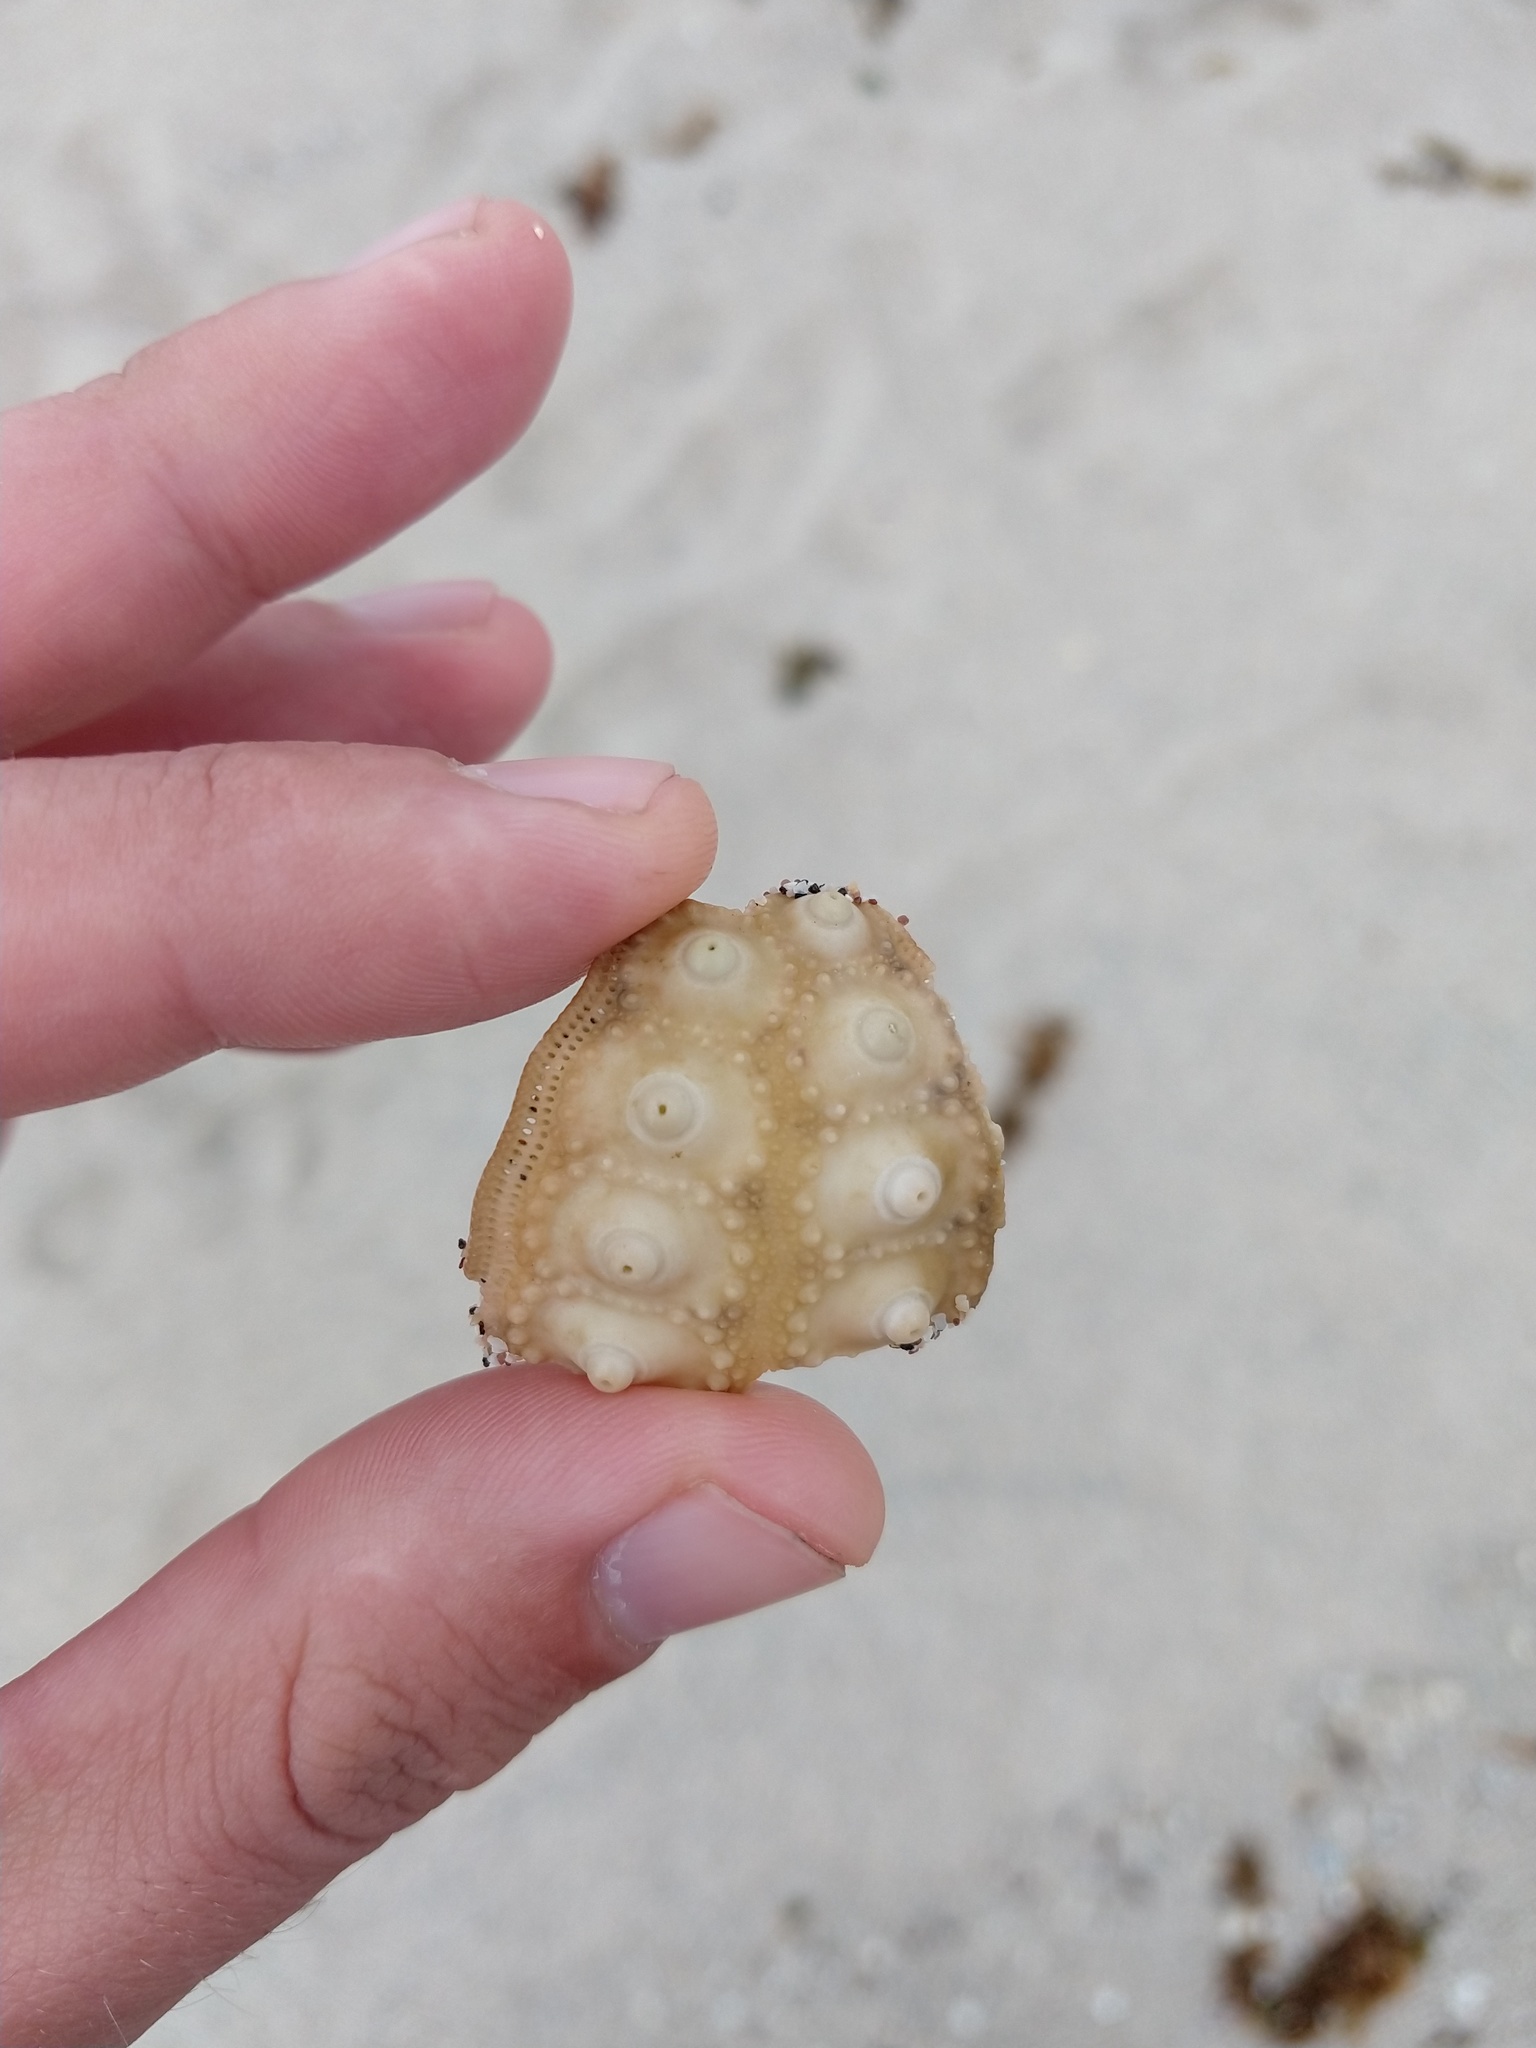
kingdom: Animalia
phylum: Echinodermata
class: Echinoidea
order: Cidaroida
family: Cidaridae
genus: Eucidaris
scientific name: Eucidaris galapagensis
